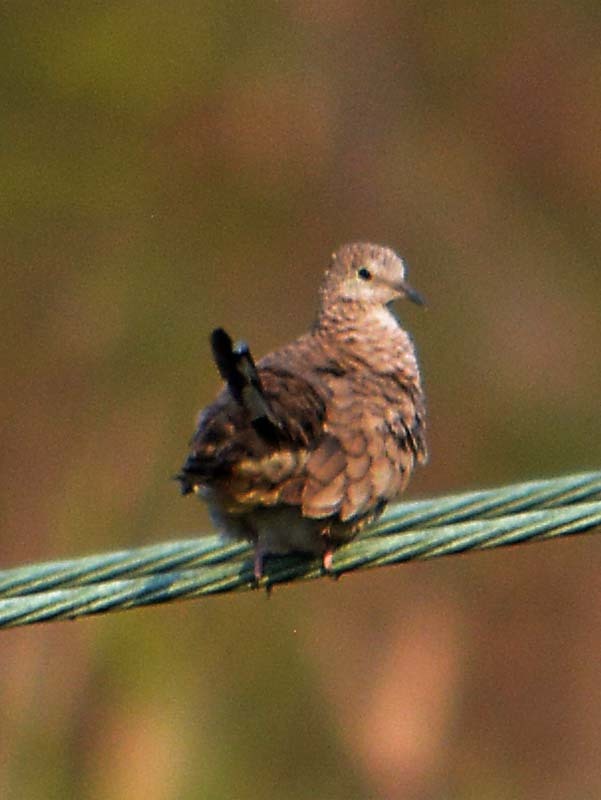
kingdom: Animalia
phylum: Chordata
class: Aves
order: Columbiformes
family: Columbidae
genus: Columbina
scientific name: Columbina inca
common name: Inca dove
